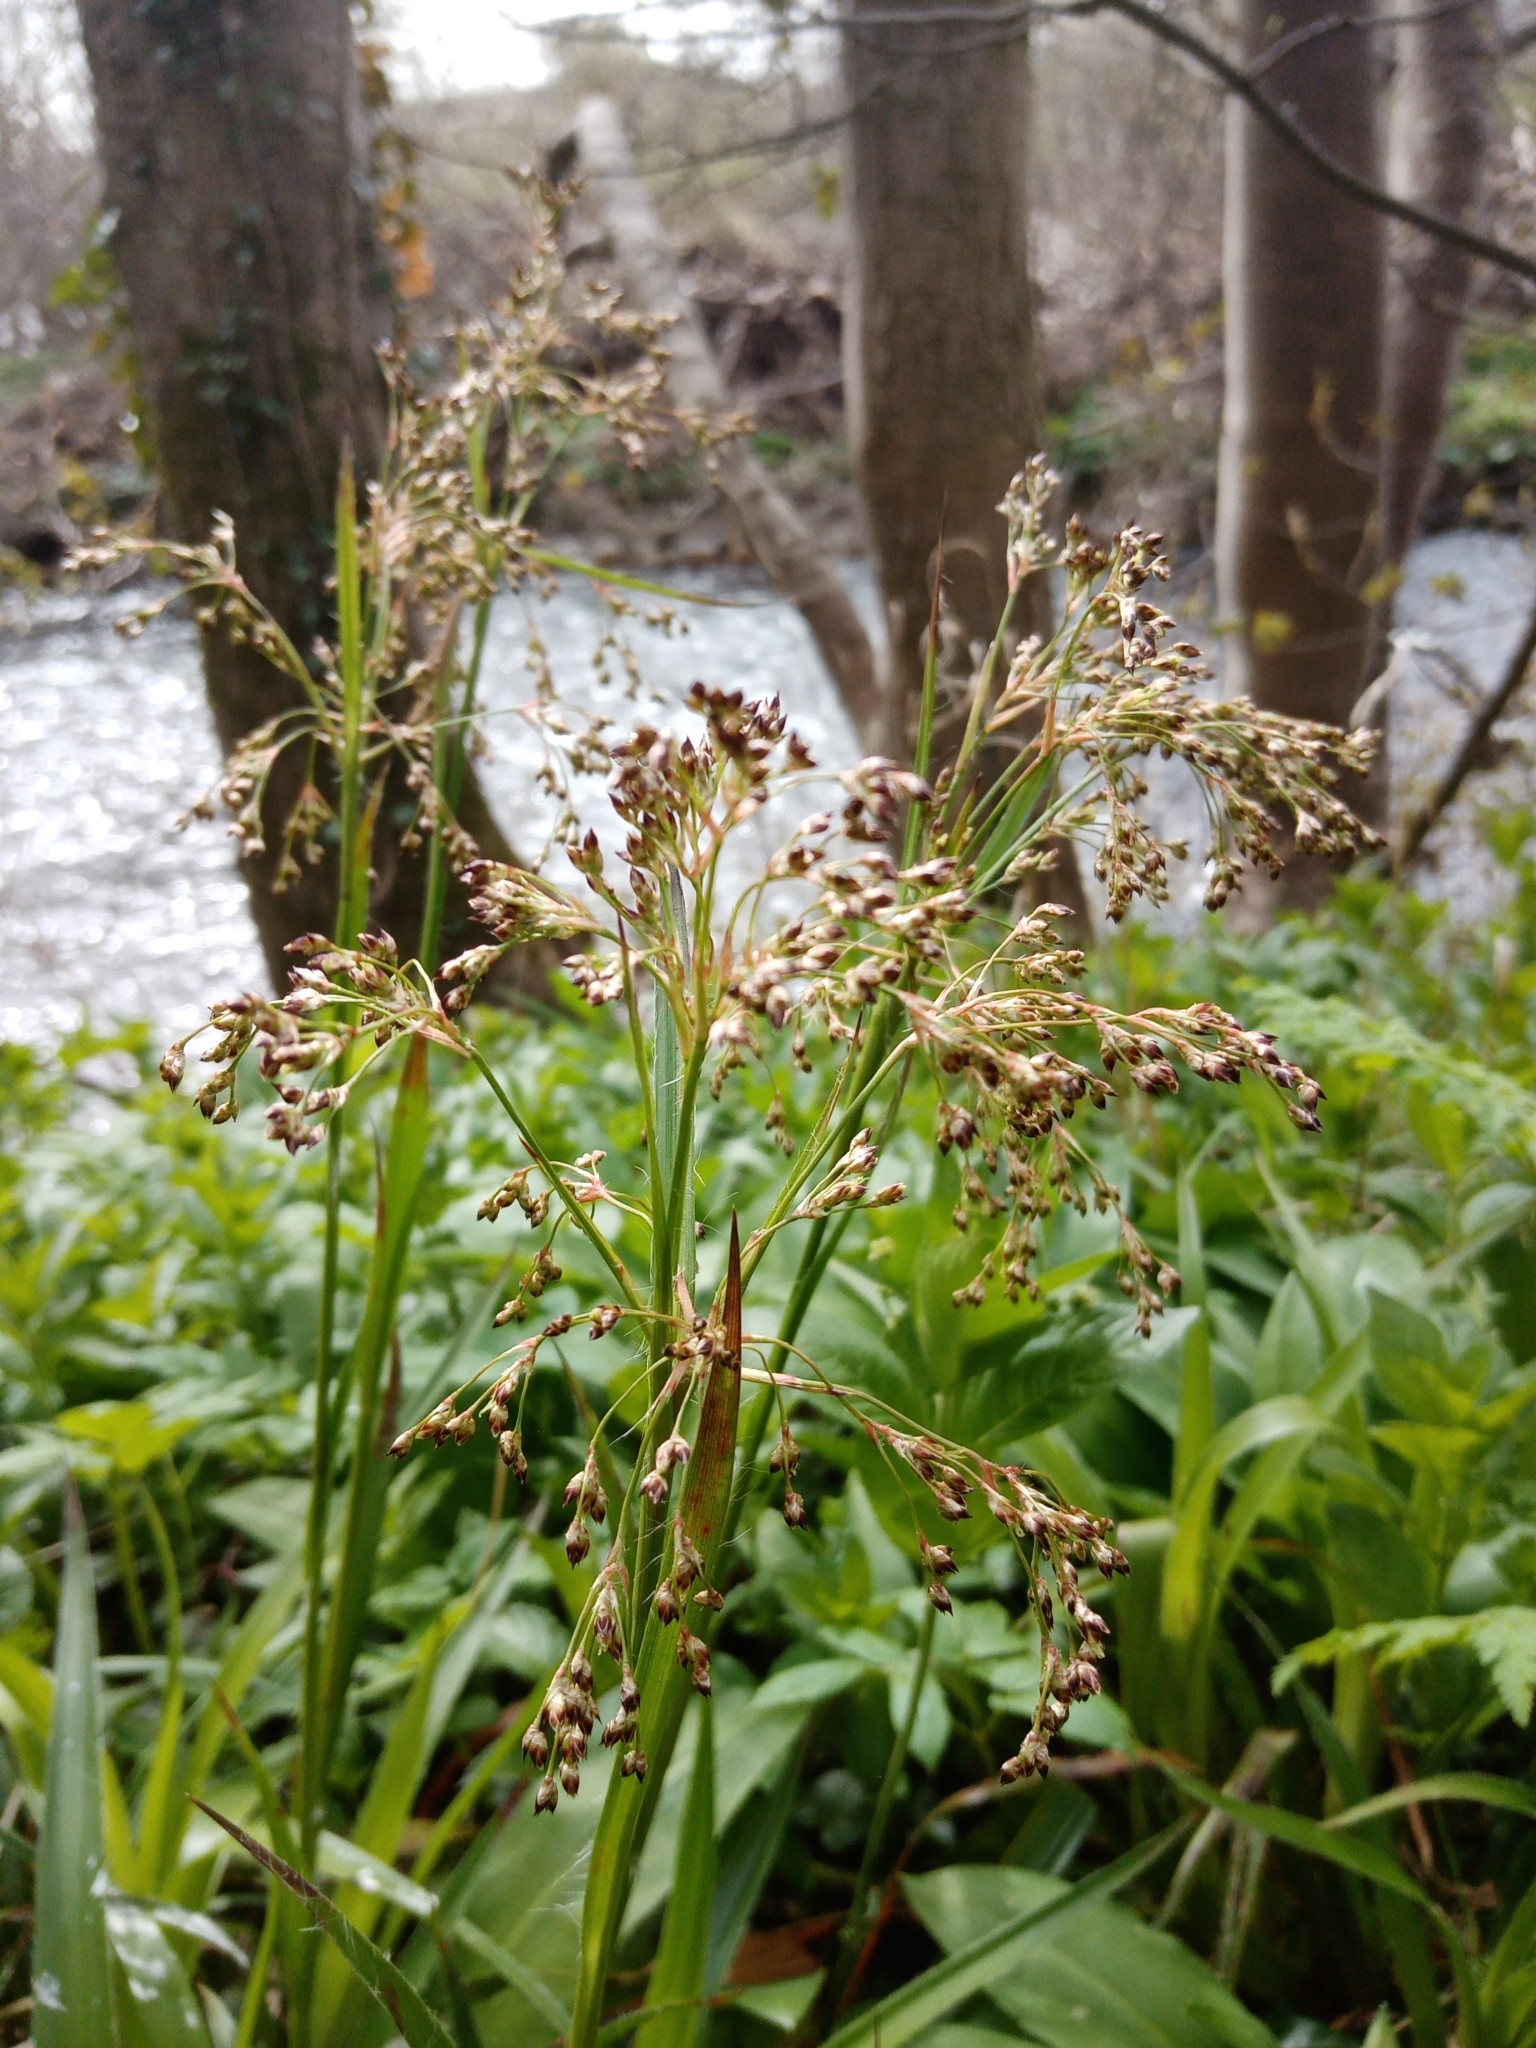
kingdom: Plantae
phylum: Tracheophyta
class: Liliopsida
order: Poales
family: Juncaceae
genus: Luzula
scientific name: Luzula sylvatica
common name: Great wood-rush
